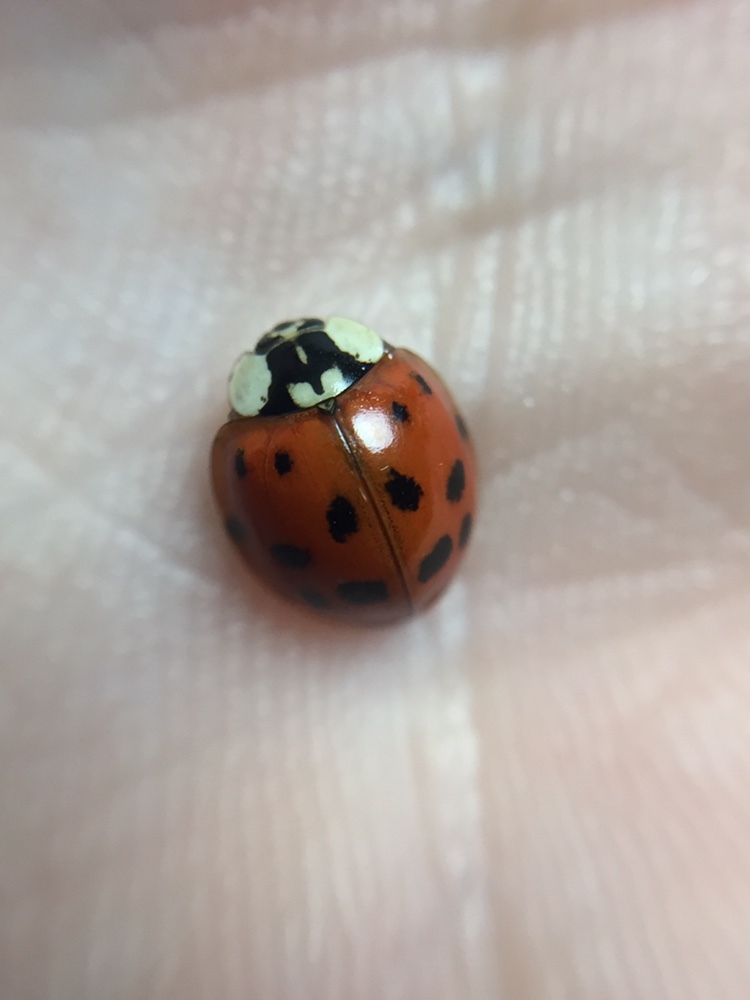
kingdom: Animalia
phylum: Arthropoda
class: Insecta
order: Coleoptera
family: Coccinellidae
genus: Harmonia
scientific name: Harmonia axyridis
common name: Harlequin ladybird
